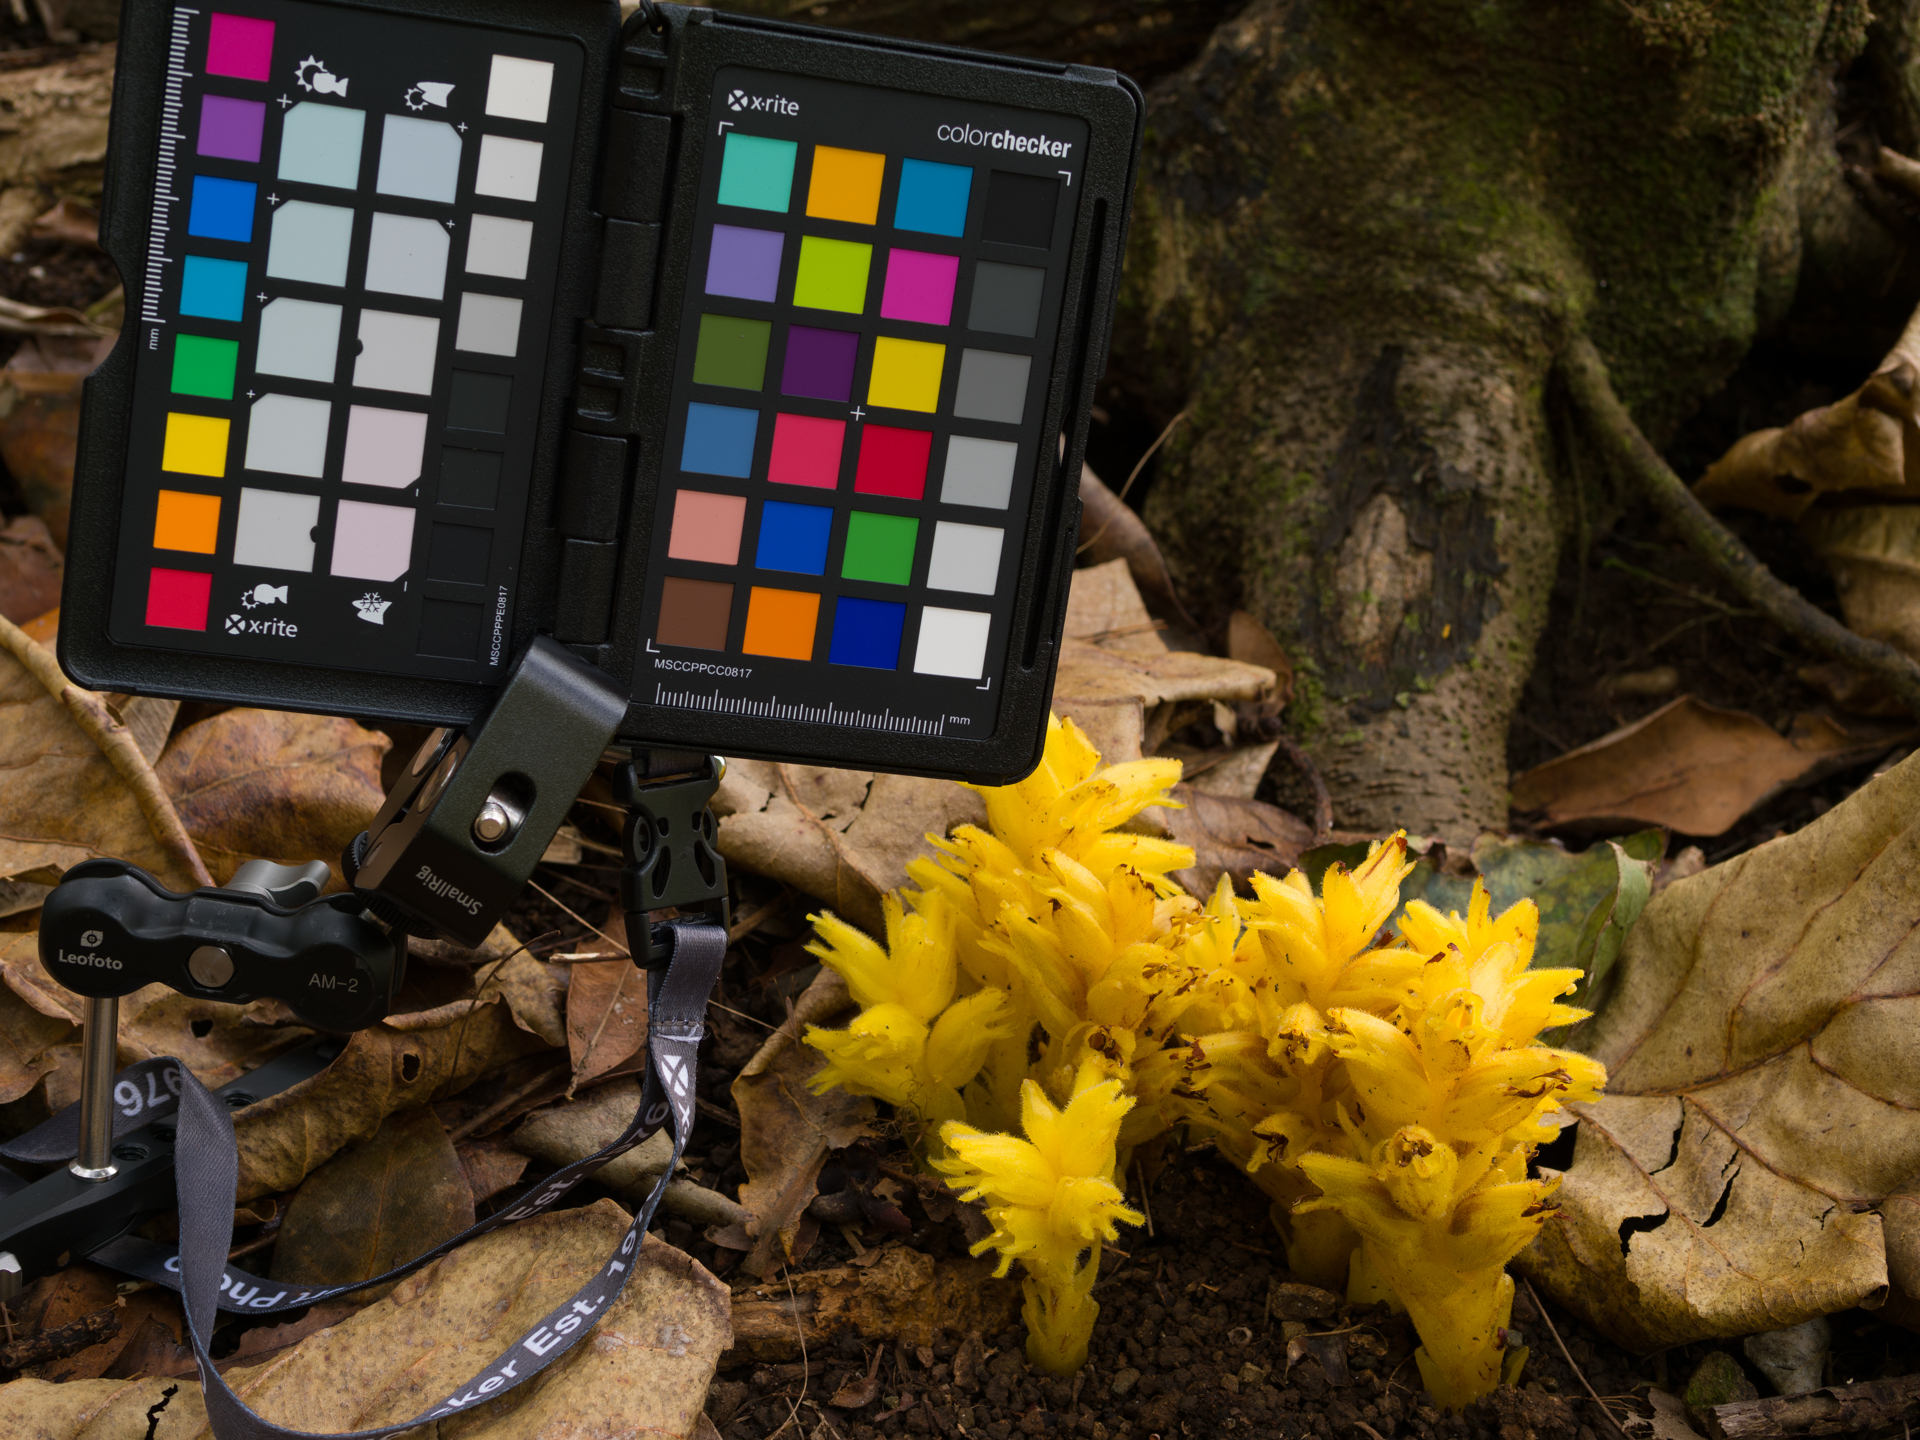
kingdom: Plantae
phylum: Tracheophyta
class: Magnoliopsida
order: Lamiales
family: Orobanchaceae
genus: Platypholis
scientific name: Platypholis boninsimae
